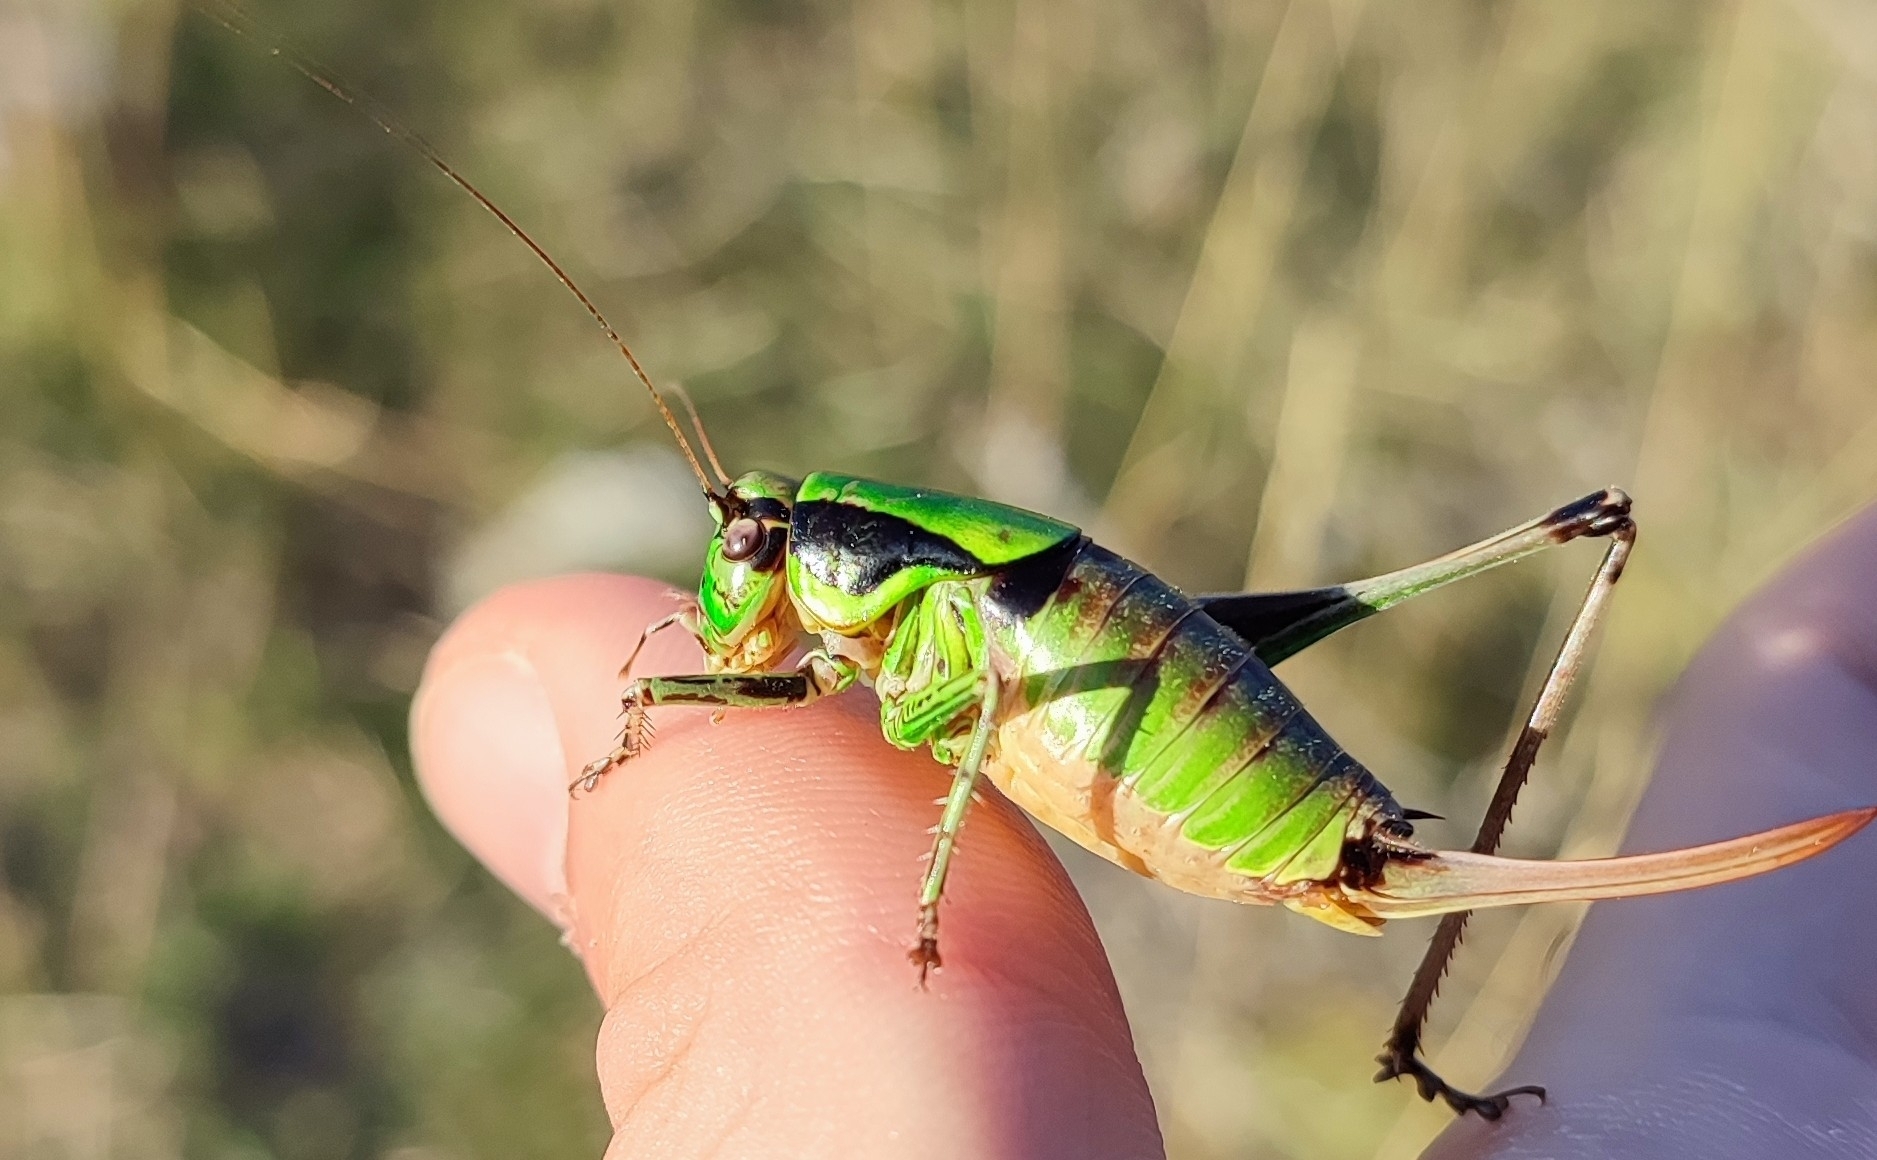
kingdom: Animalia
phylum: Arthropoda
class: Insecta
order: Orthoptera
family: Tettigoniidae
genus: Eupholidoptera
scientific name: Eupholidoptera chabrieri
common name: Chabrier's marbled bush-cricket
